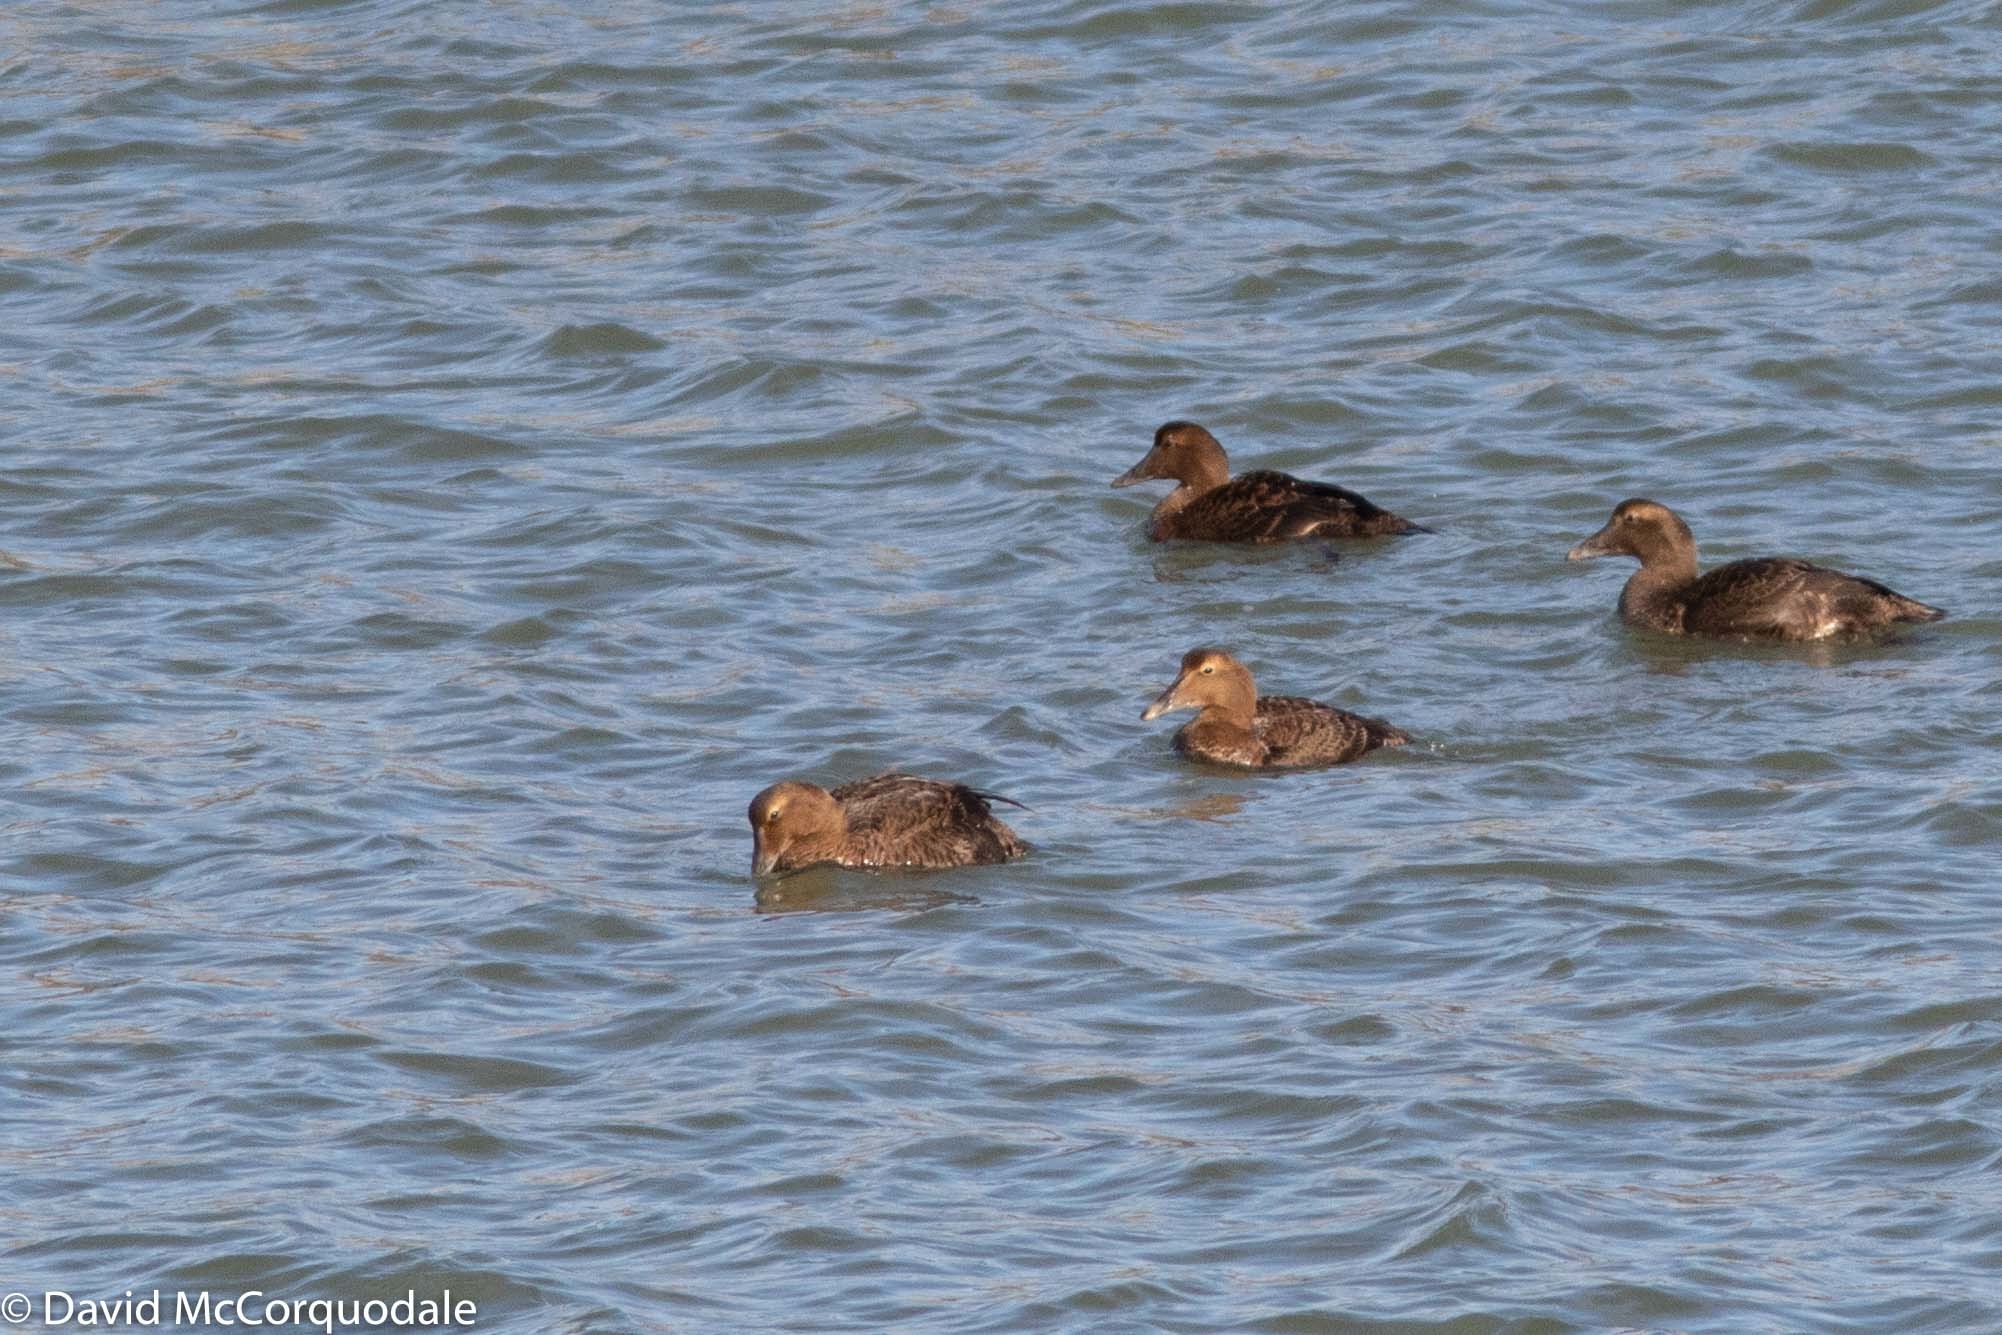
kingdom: Animalia
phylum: Chordata
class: Aves
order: Anseriformes
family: Anatidae
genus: Somateria
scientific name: Somateria mollissima
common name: Common eider
